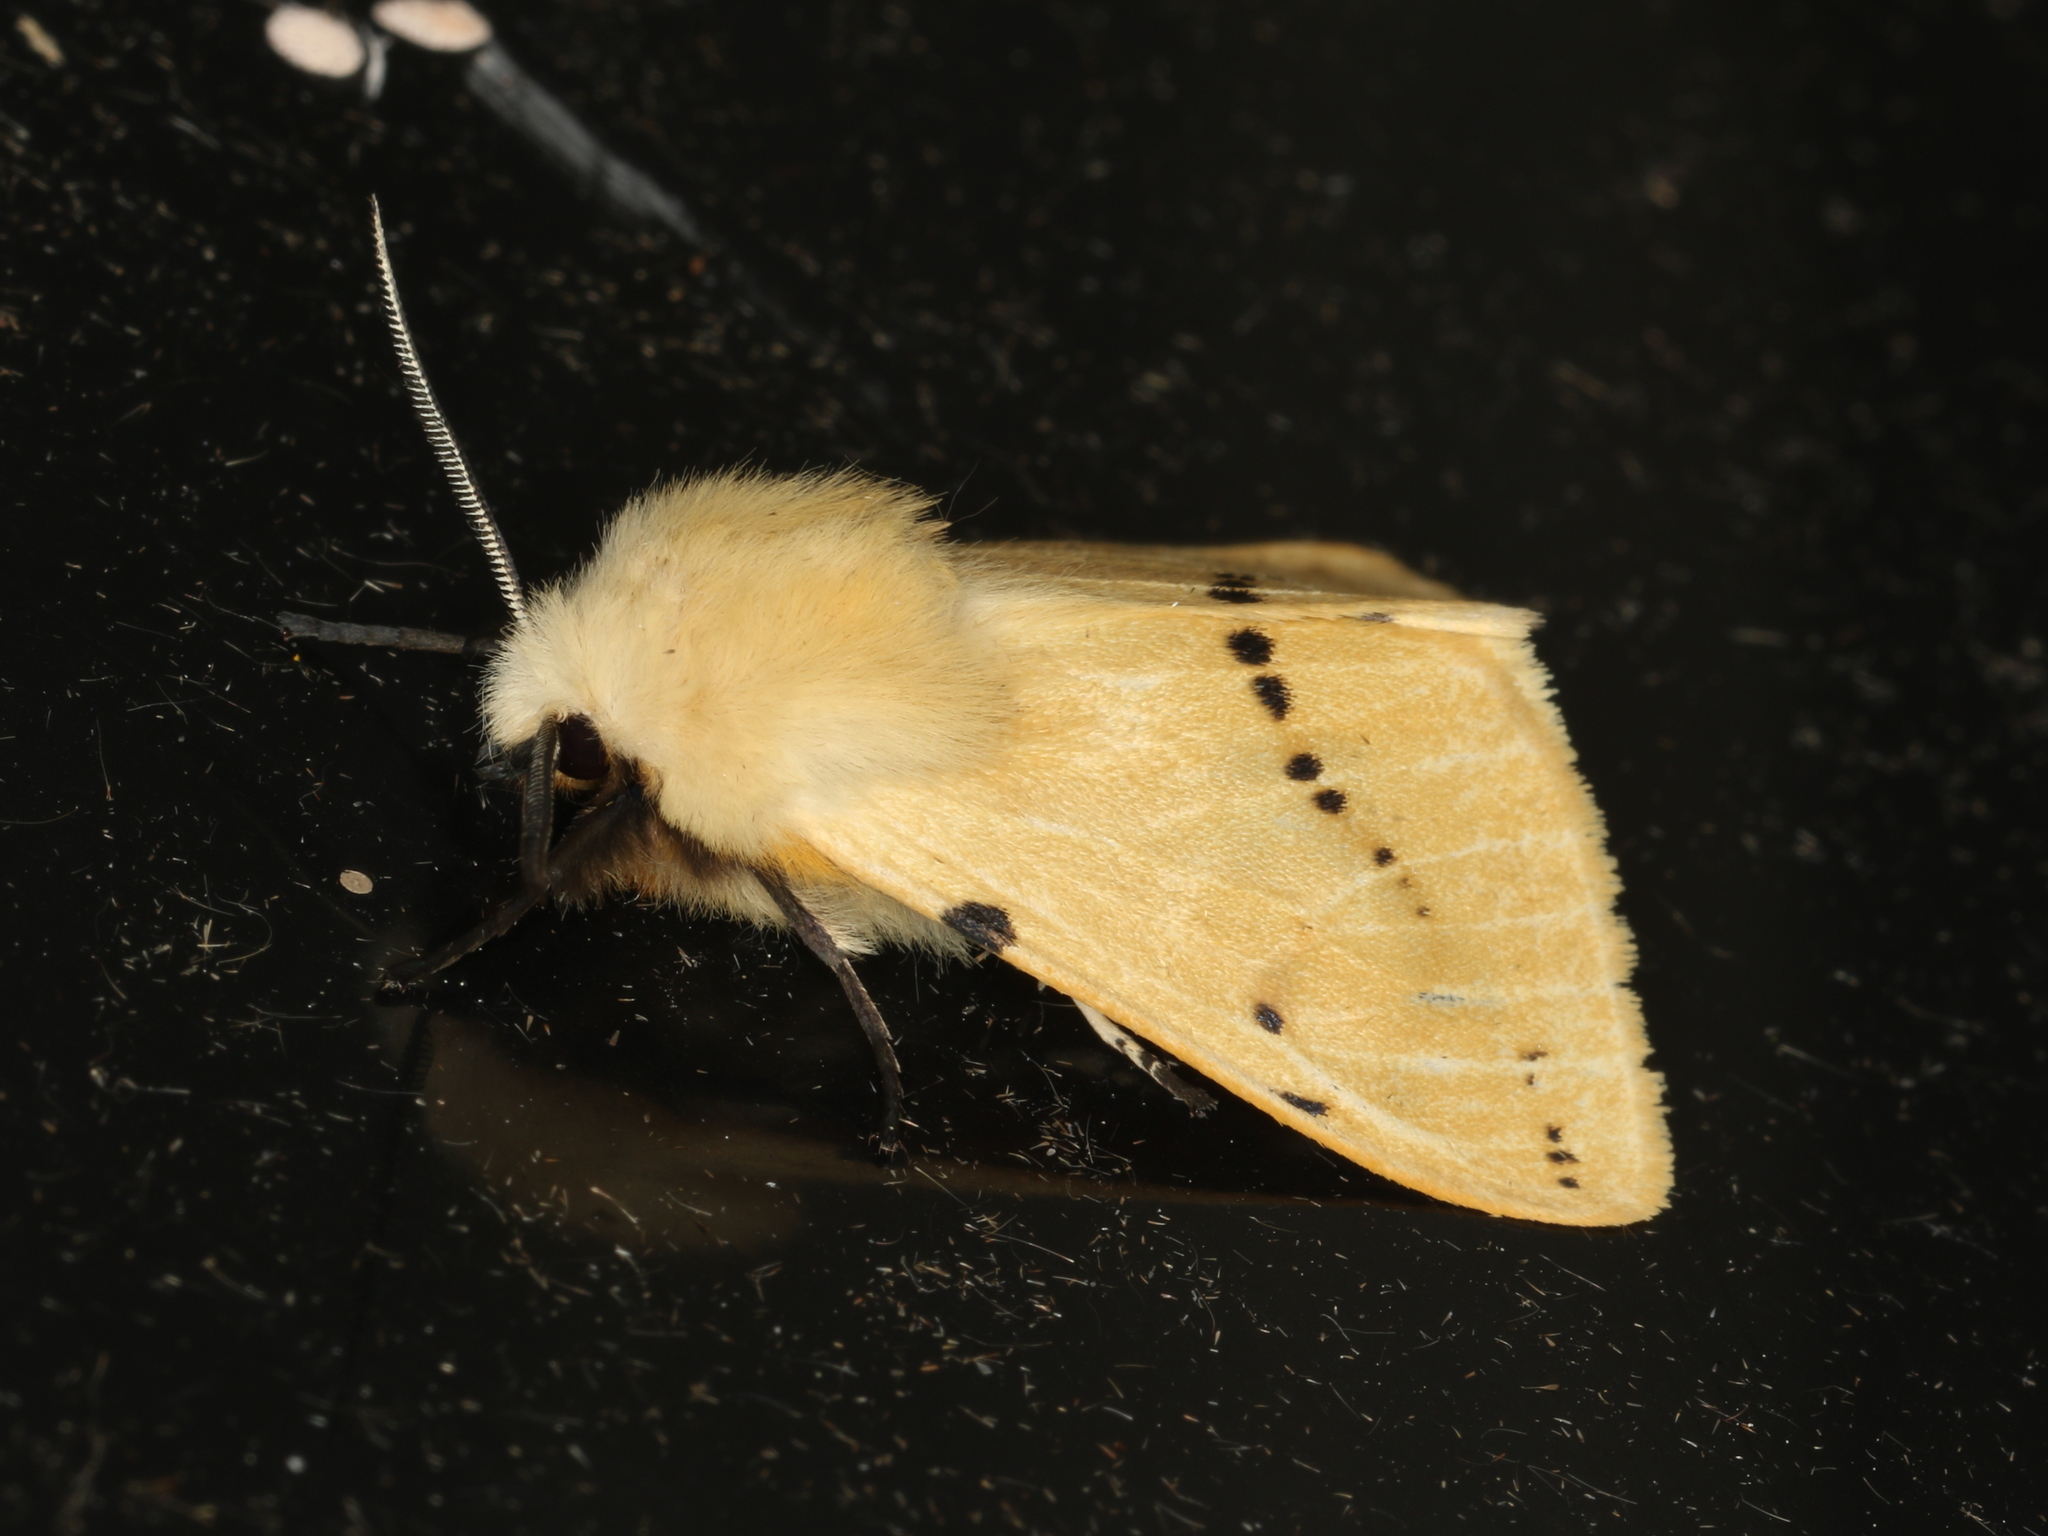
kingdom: Animalia
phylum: Arthropoda
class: Insecta
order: Lepidoptera
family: Erebidae
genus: Spilarctia
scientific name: Spilarctia lutea
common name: Buff ermine
